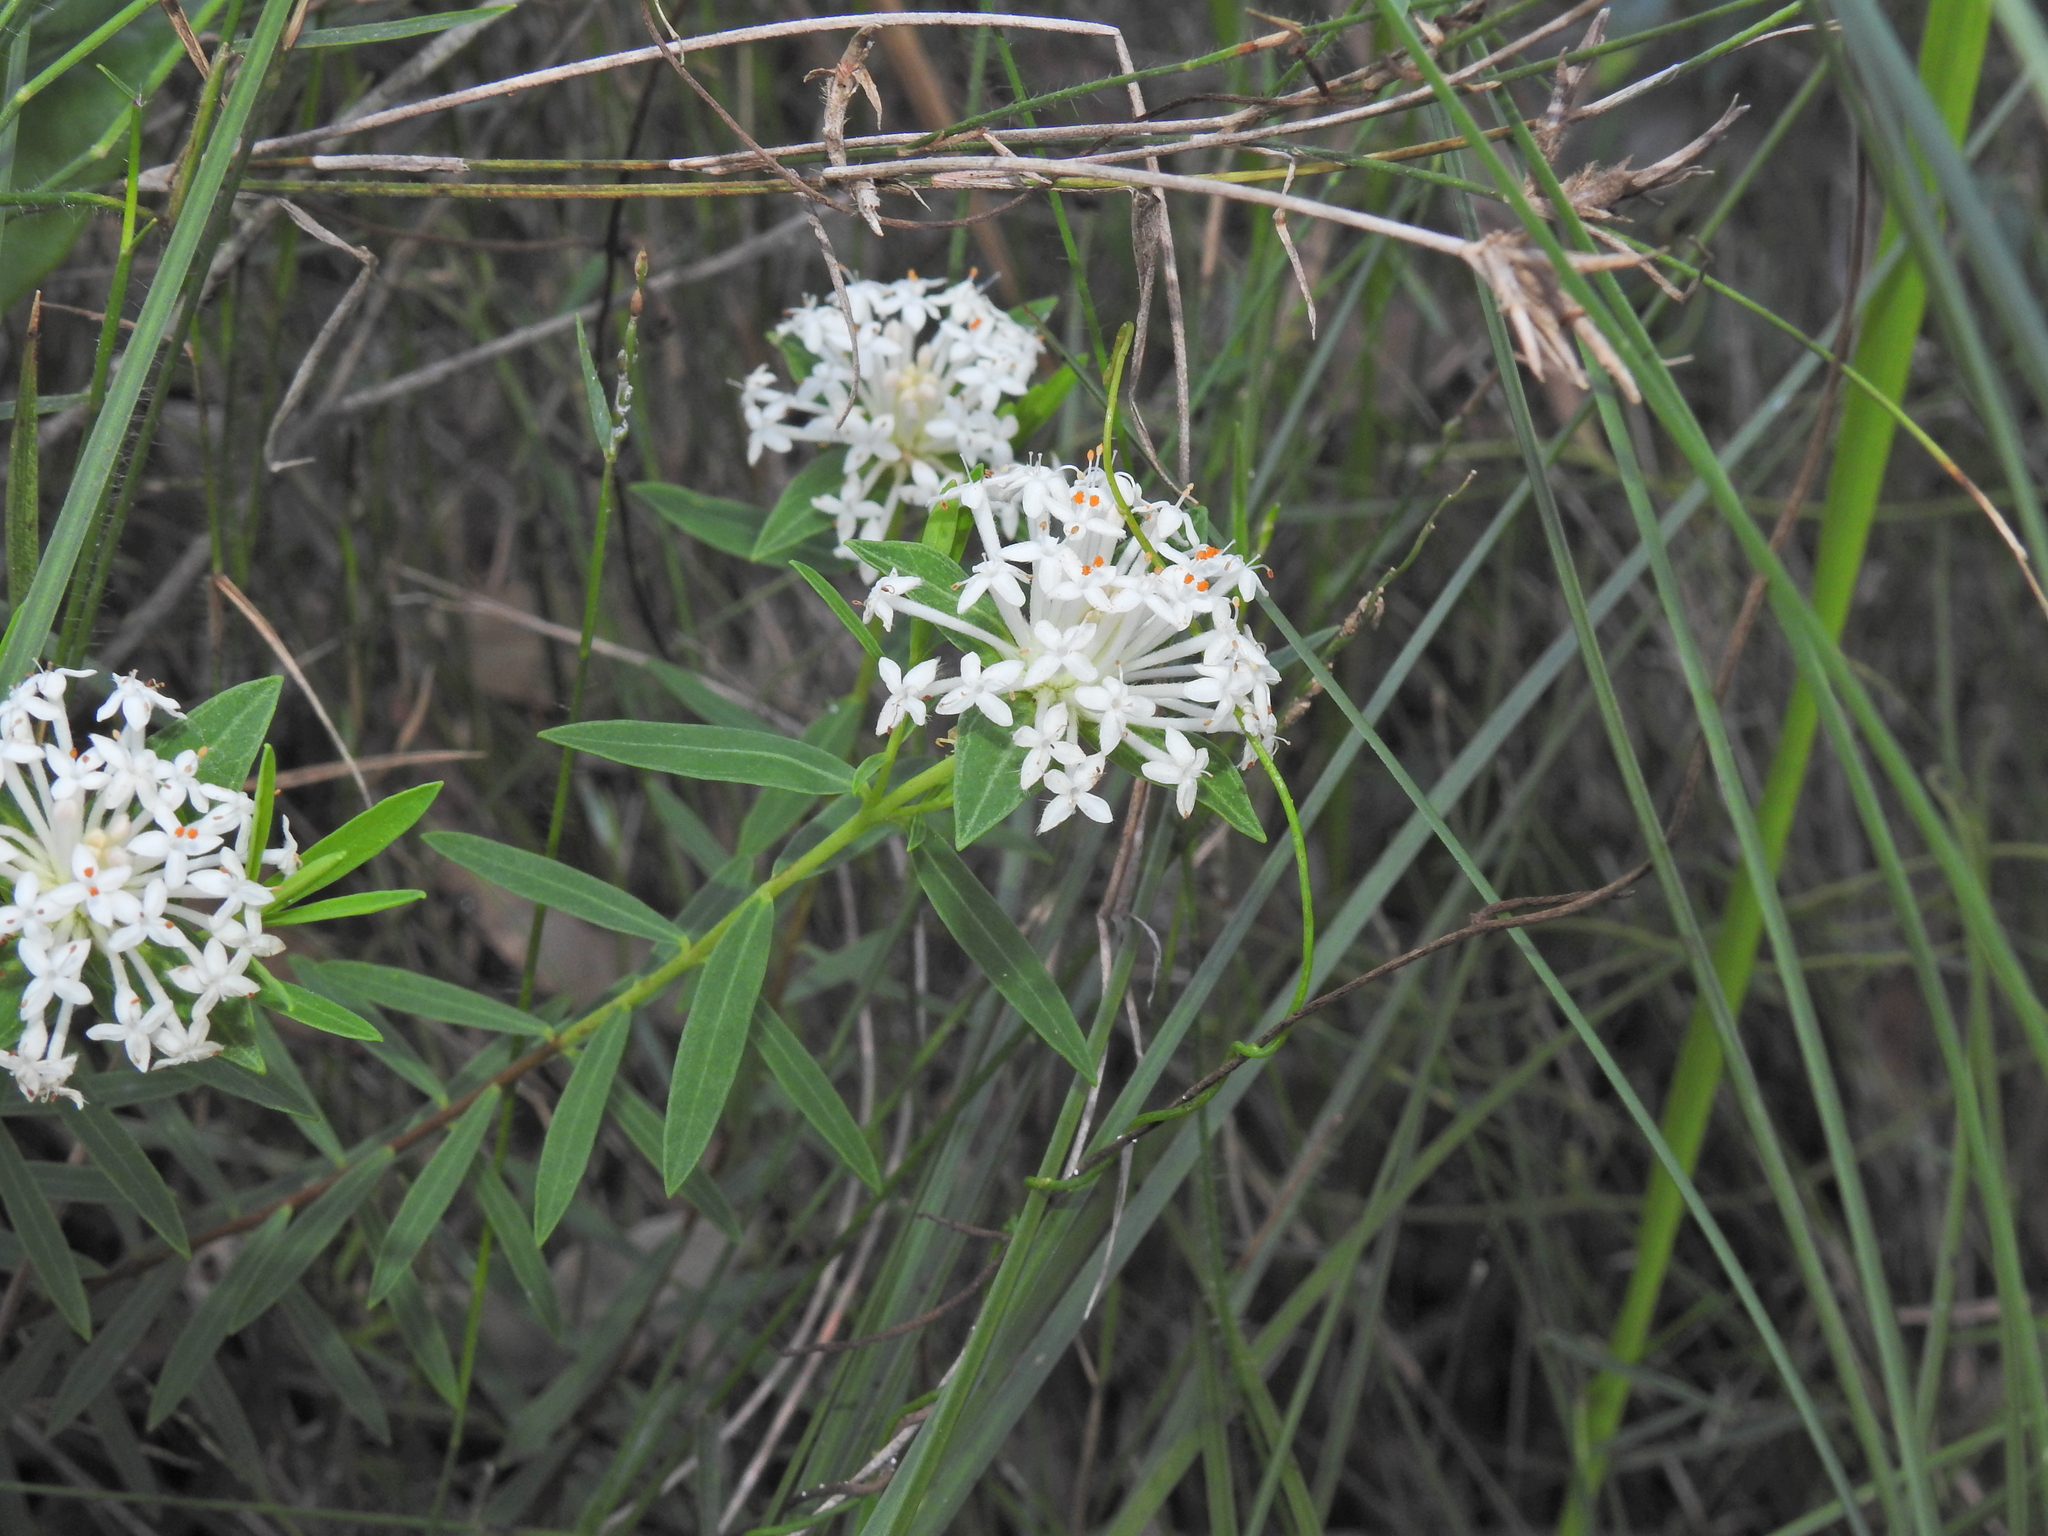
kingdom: Plantae
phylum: Tracheophyta
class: Magnoliopsida
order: Malvales
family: Thymelaeaceae
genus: Pimelea
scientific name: Pimelea linifolia
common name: Queen-of-the-bush
